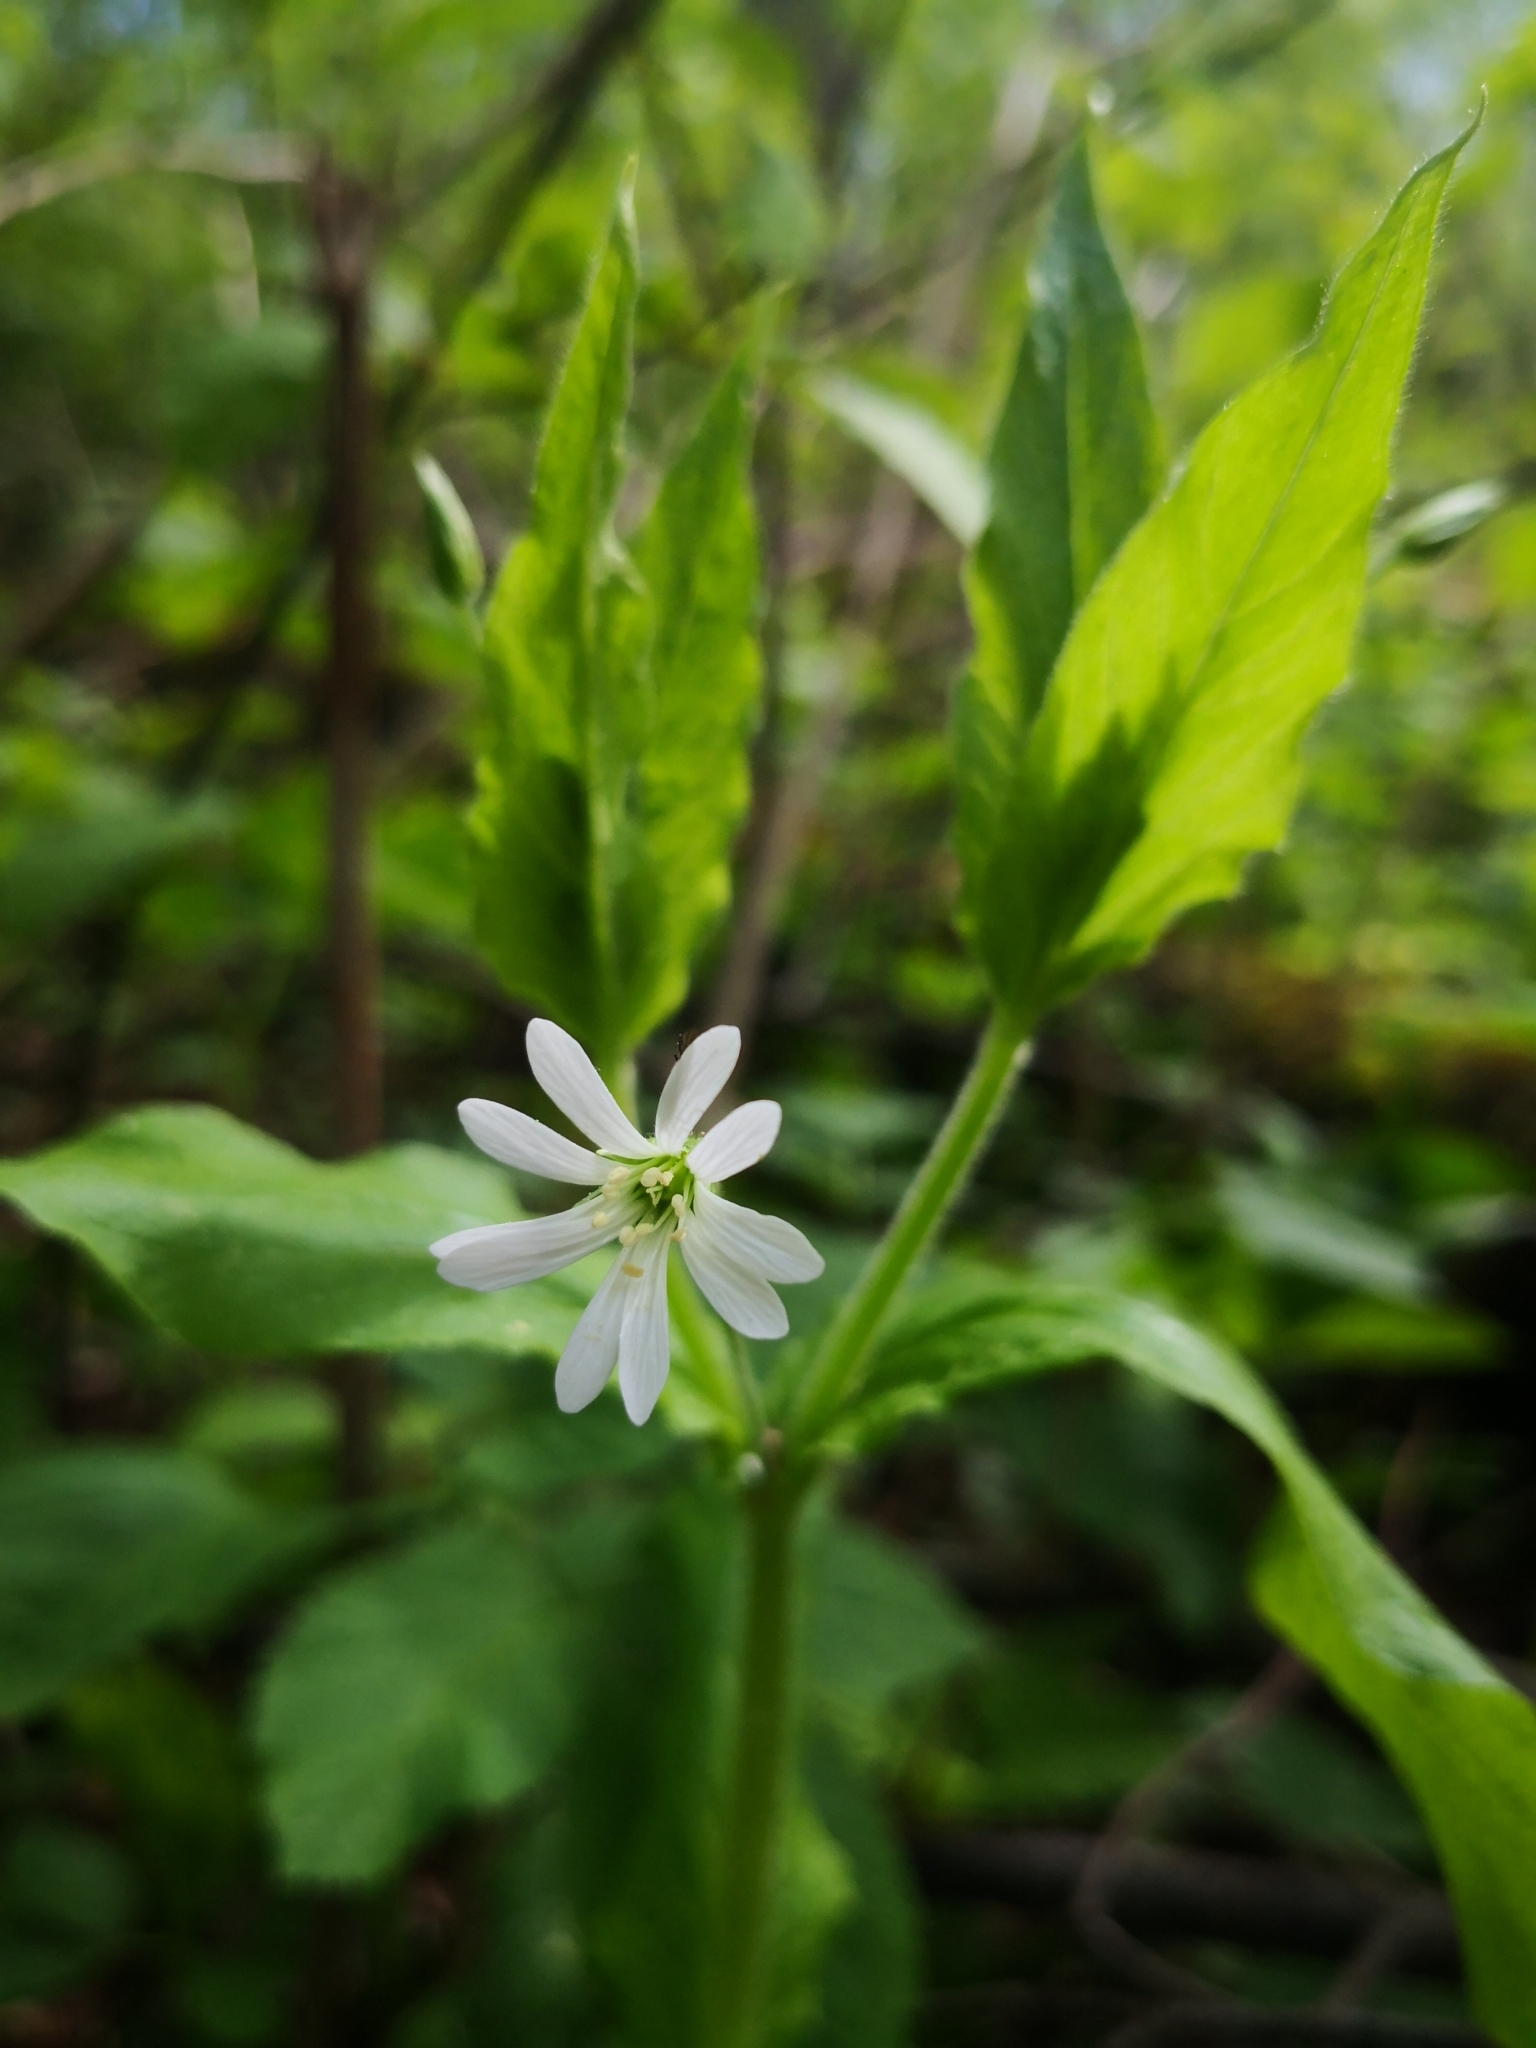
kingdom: Plantae
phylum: Tracheophyta
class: Magnoliopsida
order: Caryophyllales
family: Caryophyllaceae
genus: Stellaria
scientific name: Stellaria nemorum
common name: Wood stitchwort
